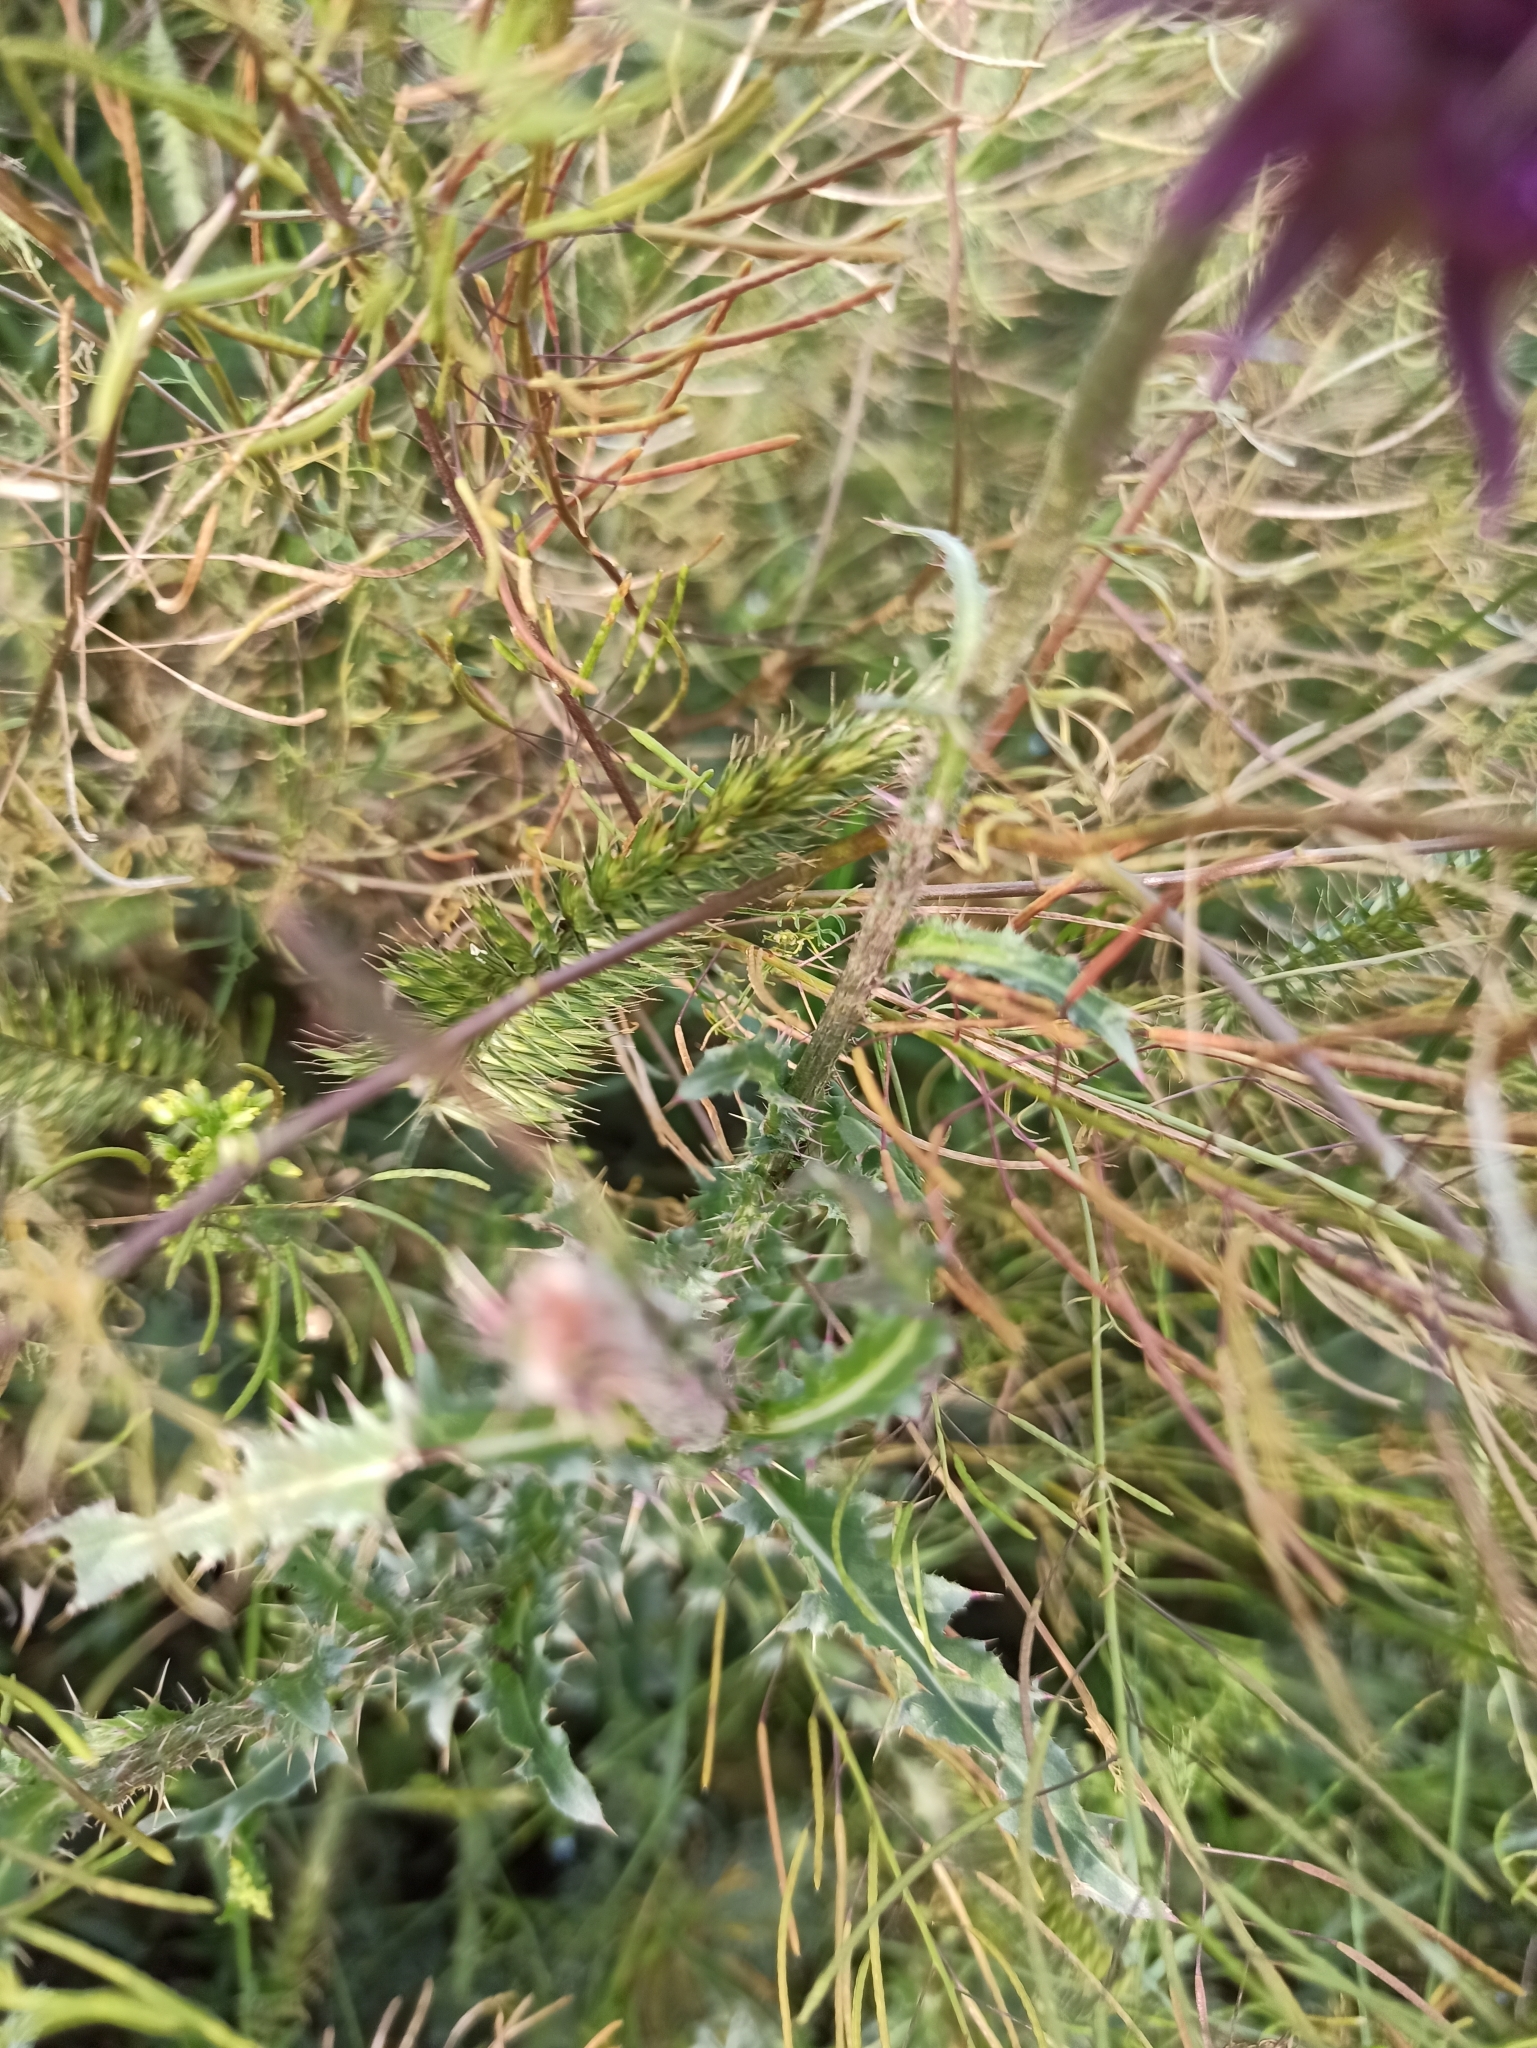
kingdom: Plantae
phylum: Tracheophyta
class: Magnoliopsida
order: Asterales
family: Asteraceae
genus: Carduus
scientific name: Carduus nutans
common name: Musk thistle
